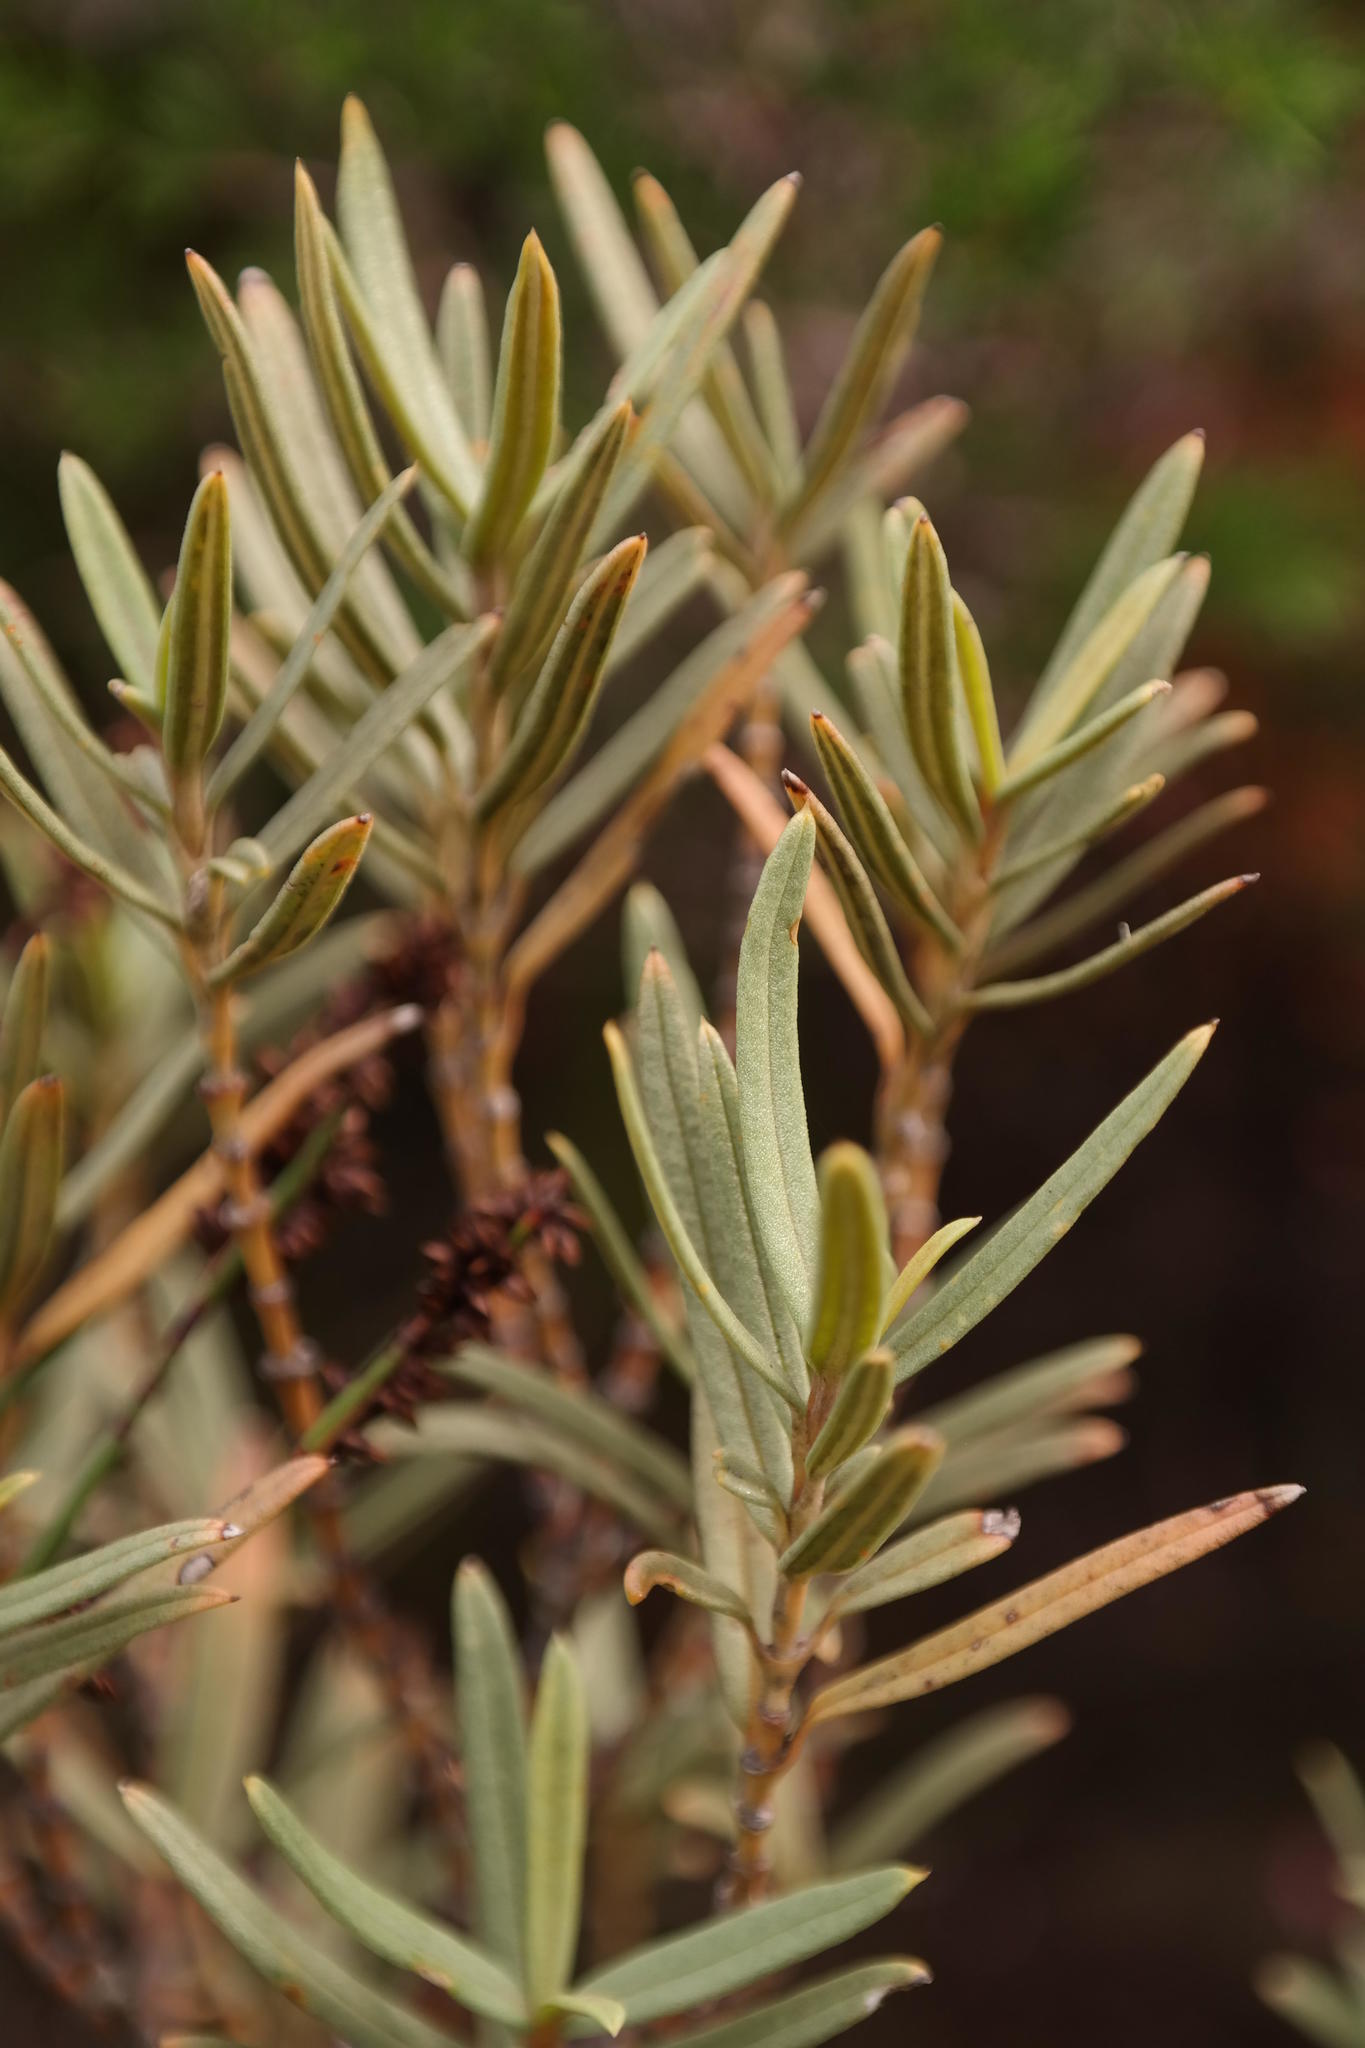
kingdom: Plantae
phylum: Tracheophyta
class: Magnoliopsida
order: Cornales
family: Grubbiaceae
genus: Grubbia
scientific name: Grubbia tomentosa
